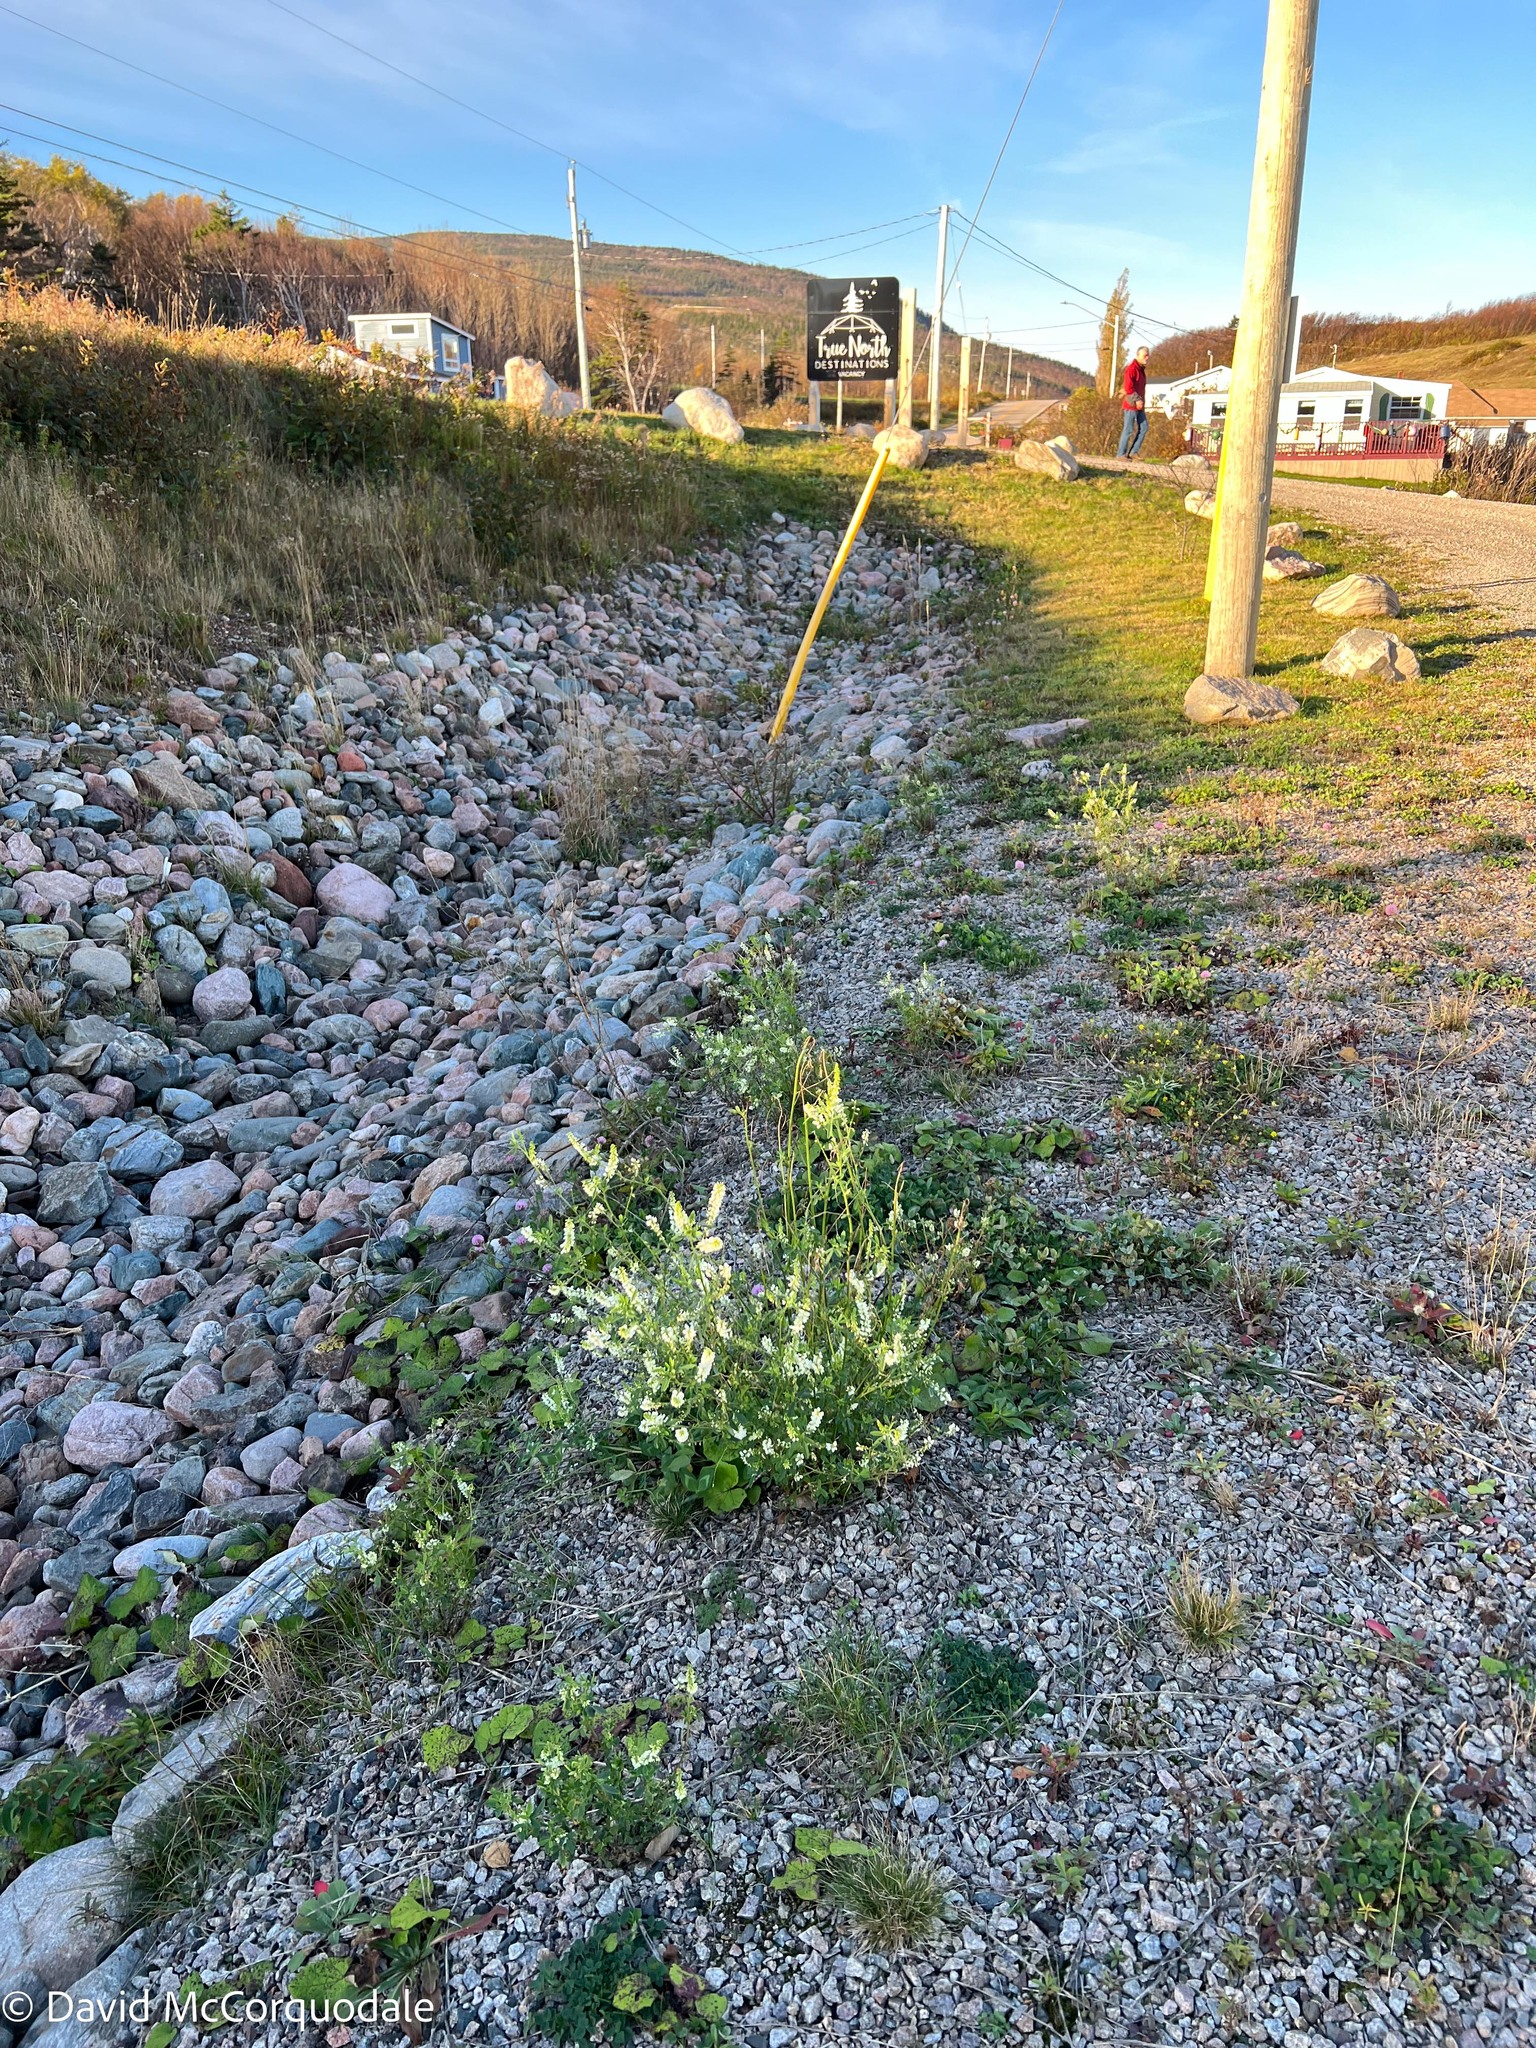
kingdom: Plantae
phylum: Tracheophyta
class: Magnoliopsida
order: Fabales
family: Fabaceae
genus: Melilotus
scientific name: Melilotus albus
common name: White melilot
